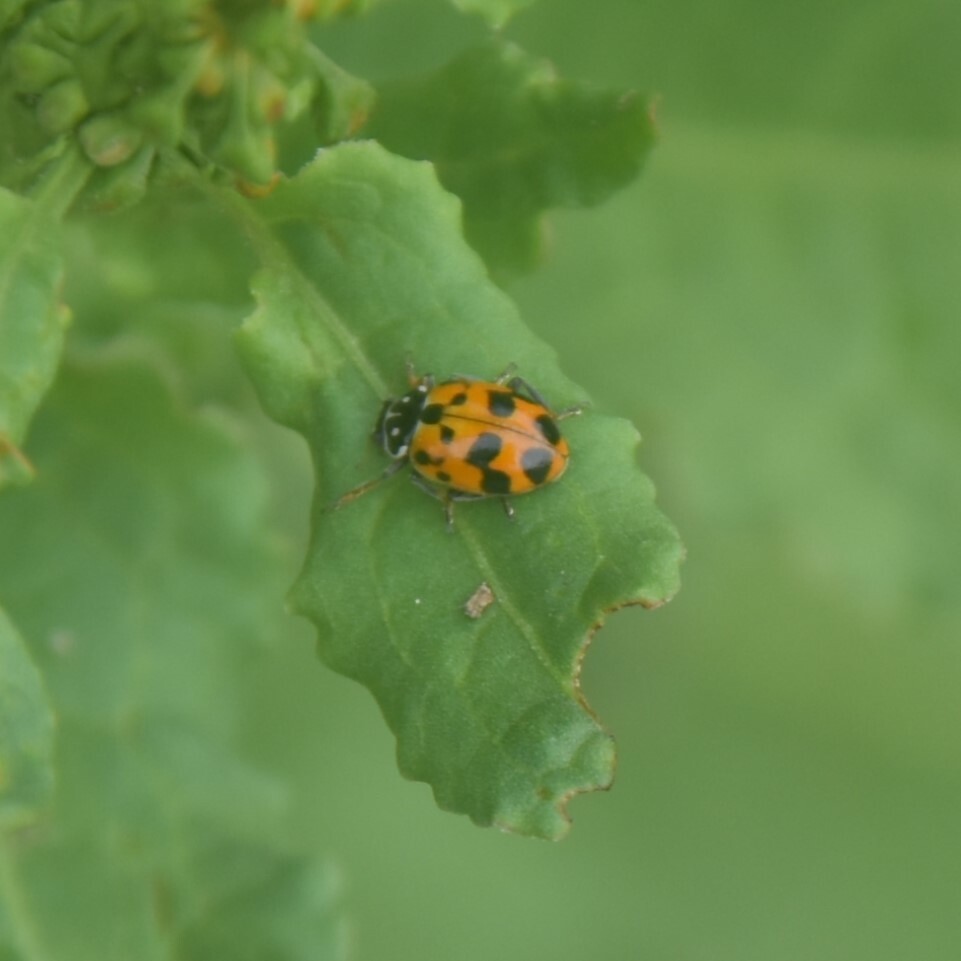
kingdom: Animalia
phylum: Arthropoda
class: Insecta
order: Coleoptera
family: Coccinellidae
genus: Hippodamia
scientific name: Hippodamia variegata
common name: Ladybird beetle
